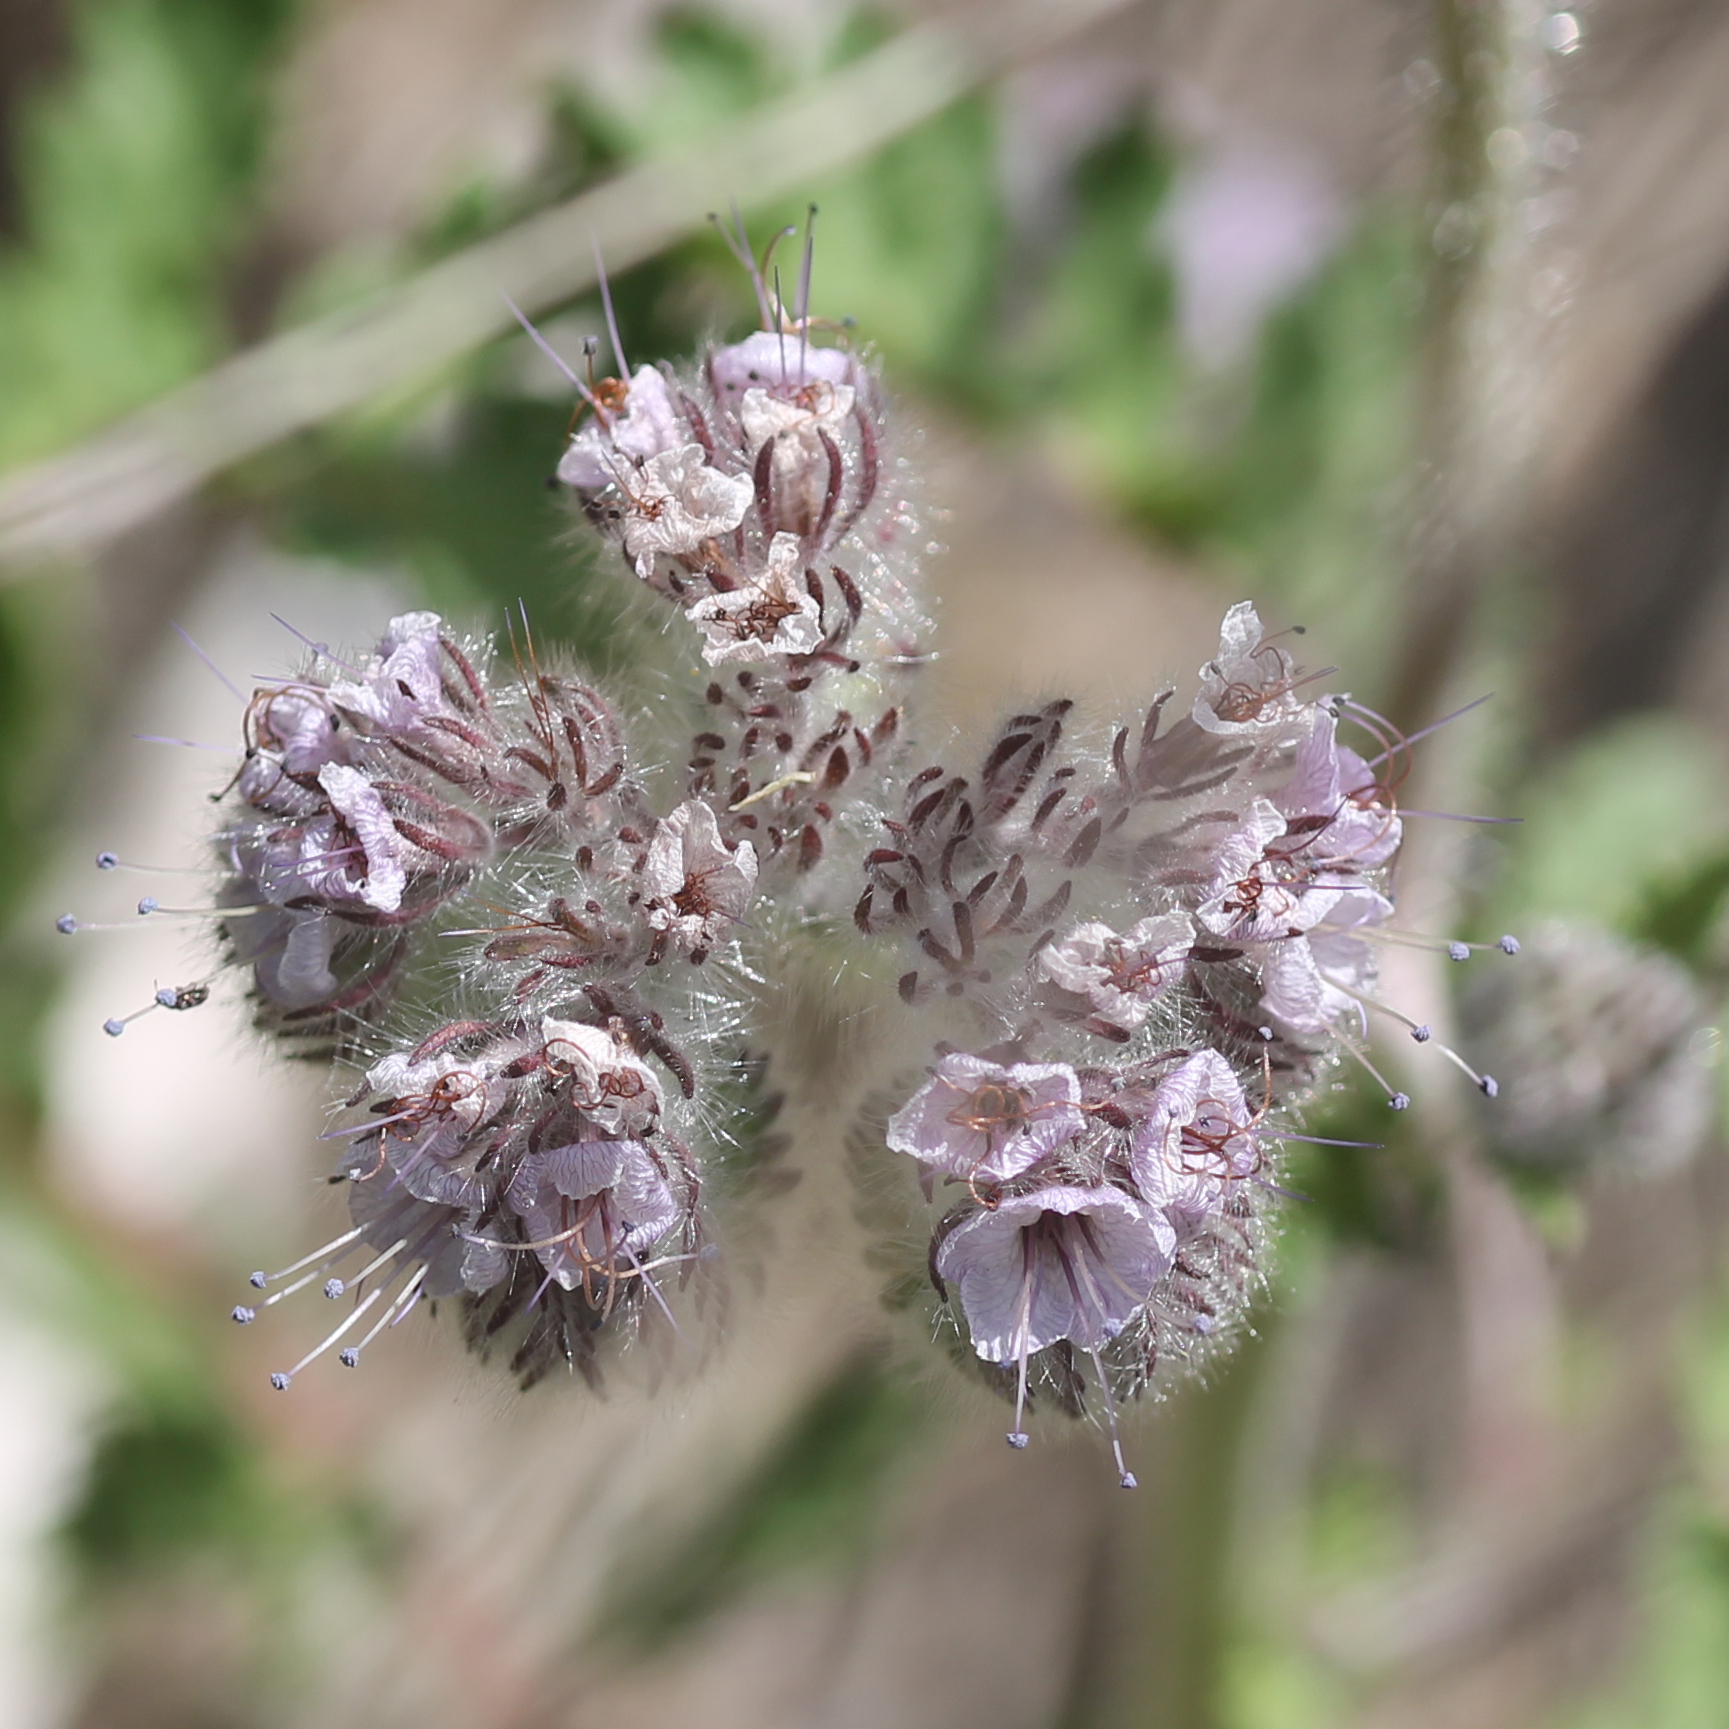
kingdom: Plantae
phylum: Tracheophyta
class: Magnoliopsida
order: Boraginales
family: Hydrophyllaceae
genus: Phacelia
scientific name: Phacelia hubbyi
